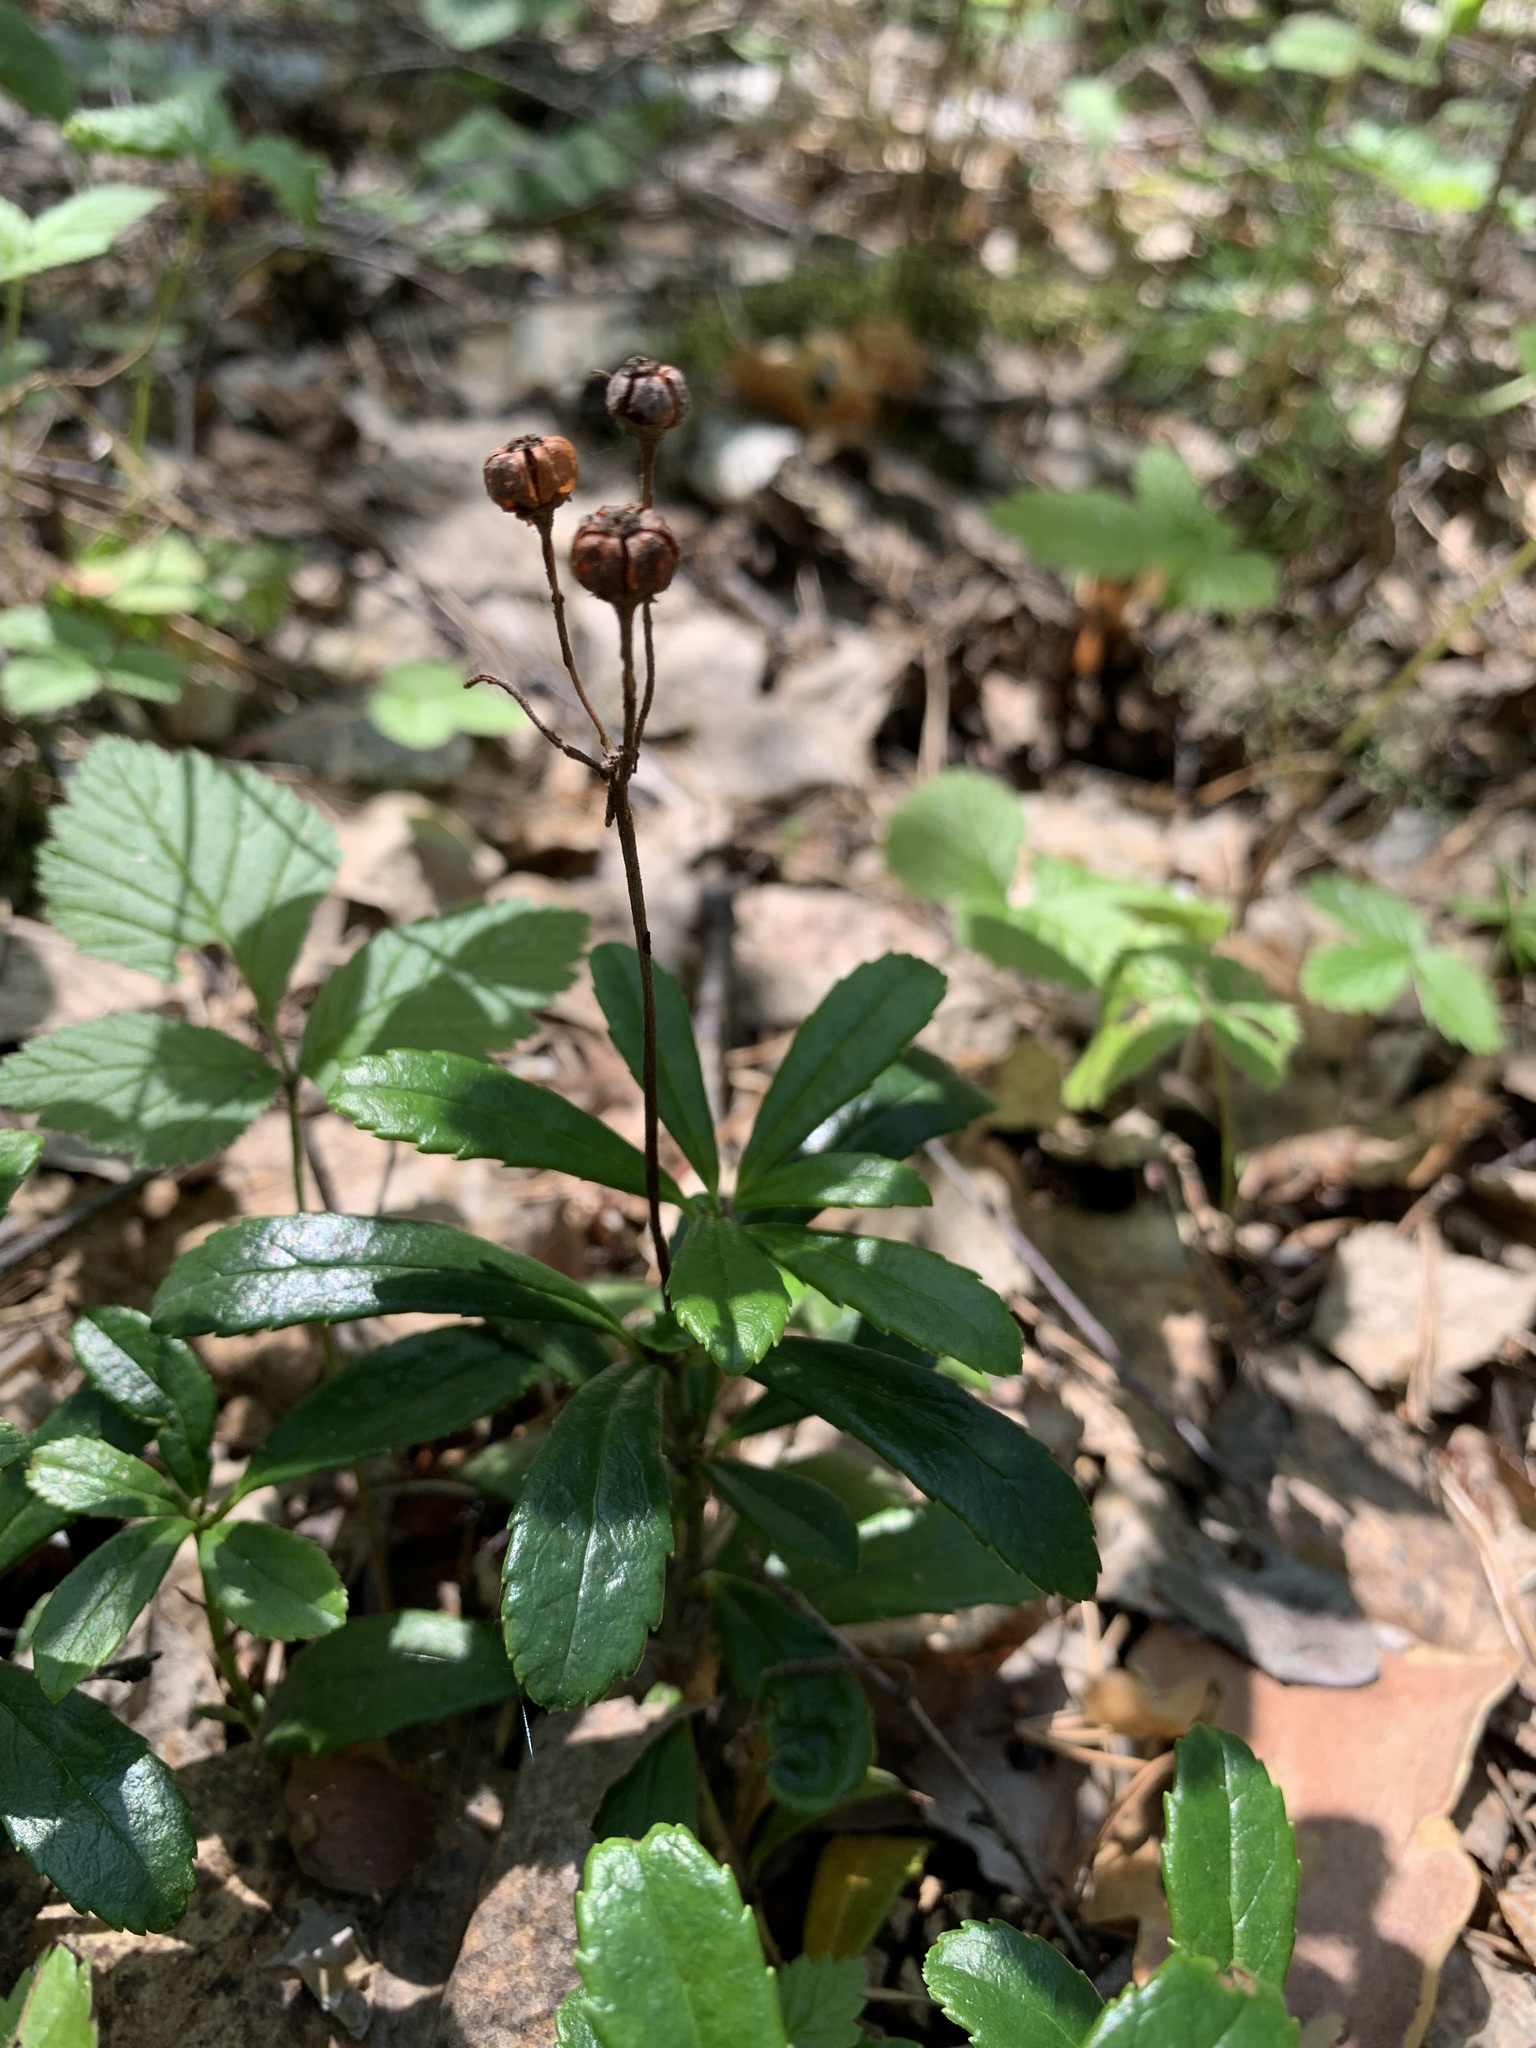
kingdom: Plantae
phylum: Tracheophyta
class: Magnoliopsida
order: Ericales
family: Ericaceae
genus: Chimaphila
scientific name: Chimaphila umbellata
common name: Pipsissewa
